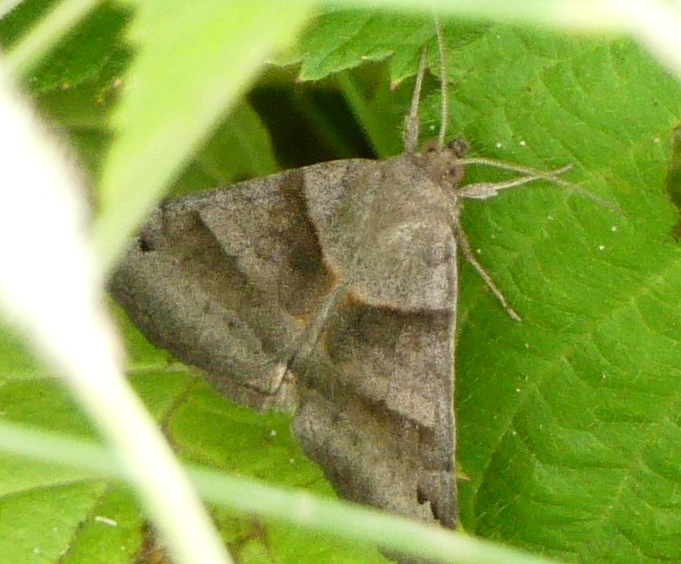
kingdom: Animalia
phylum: Arthropoda
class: Insecta
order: Lepidoptera
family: Erebidae
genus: Caenurgina
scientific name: Caenurgina crassiuscula
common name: Double-barred
